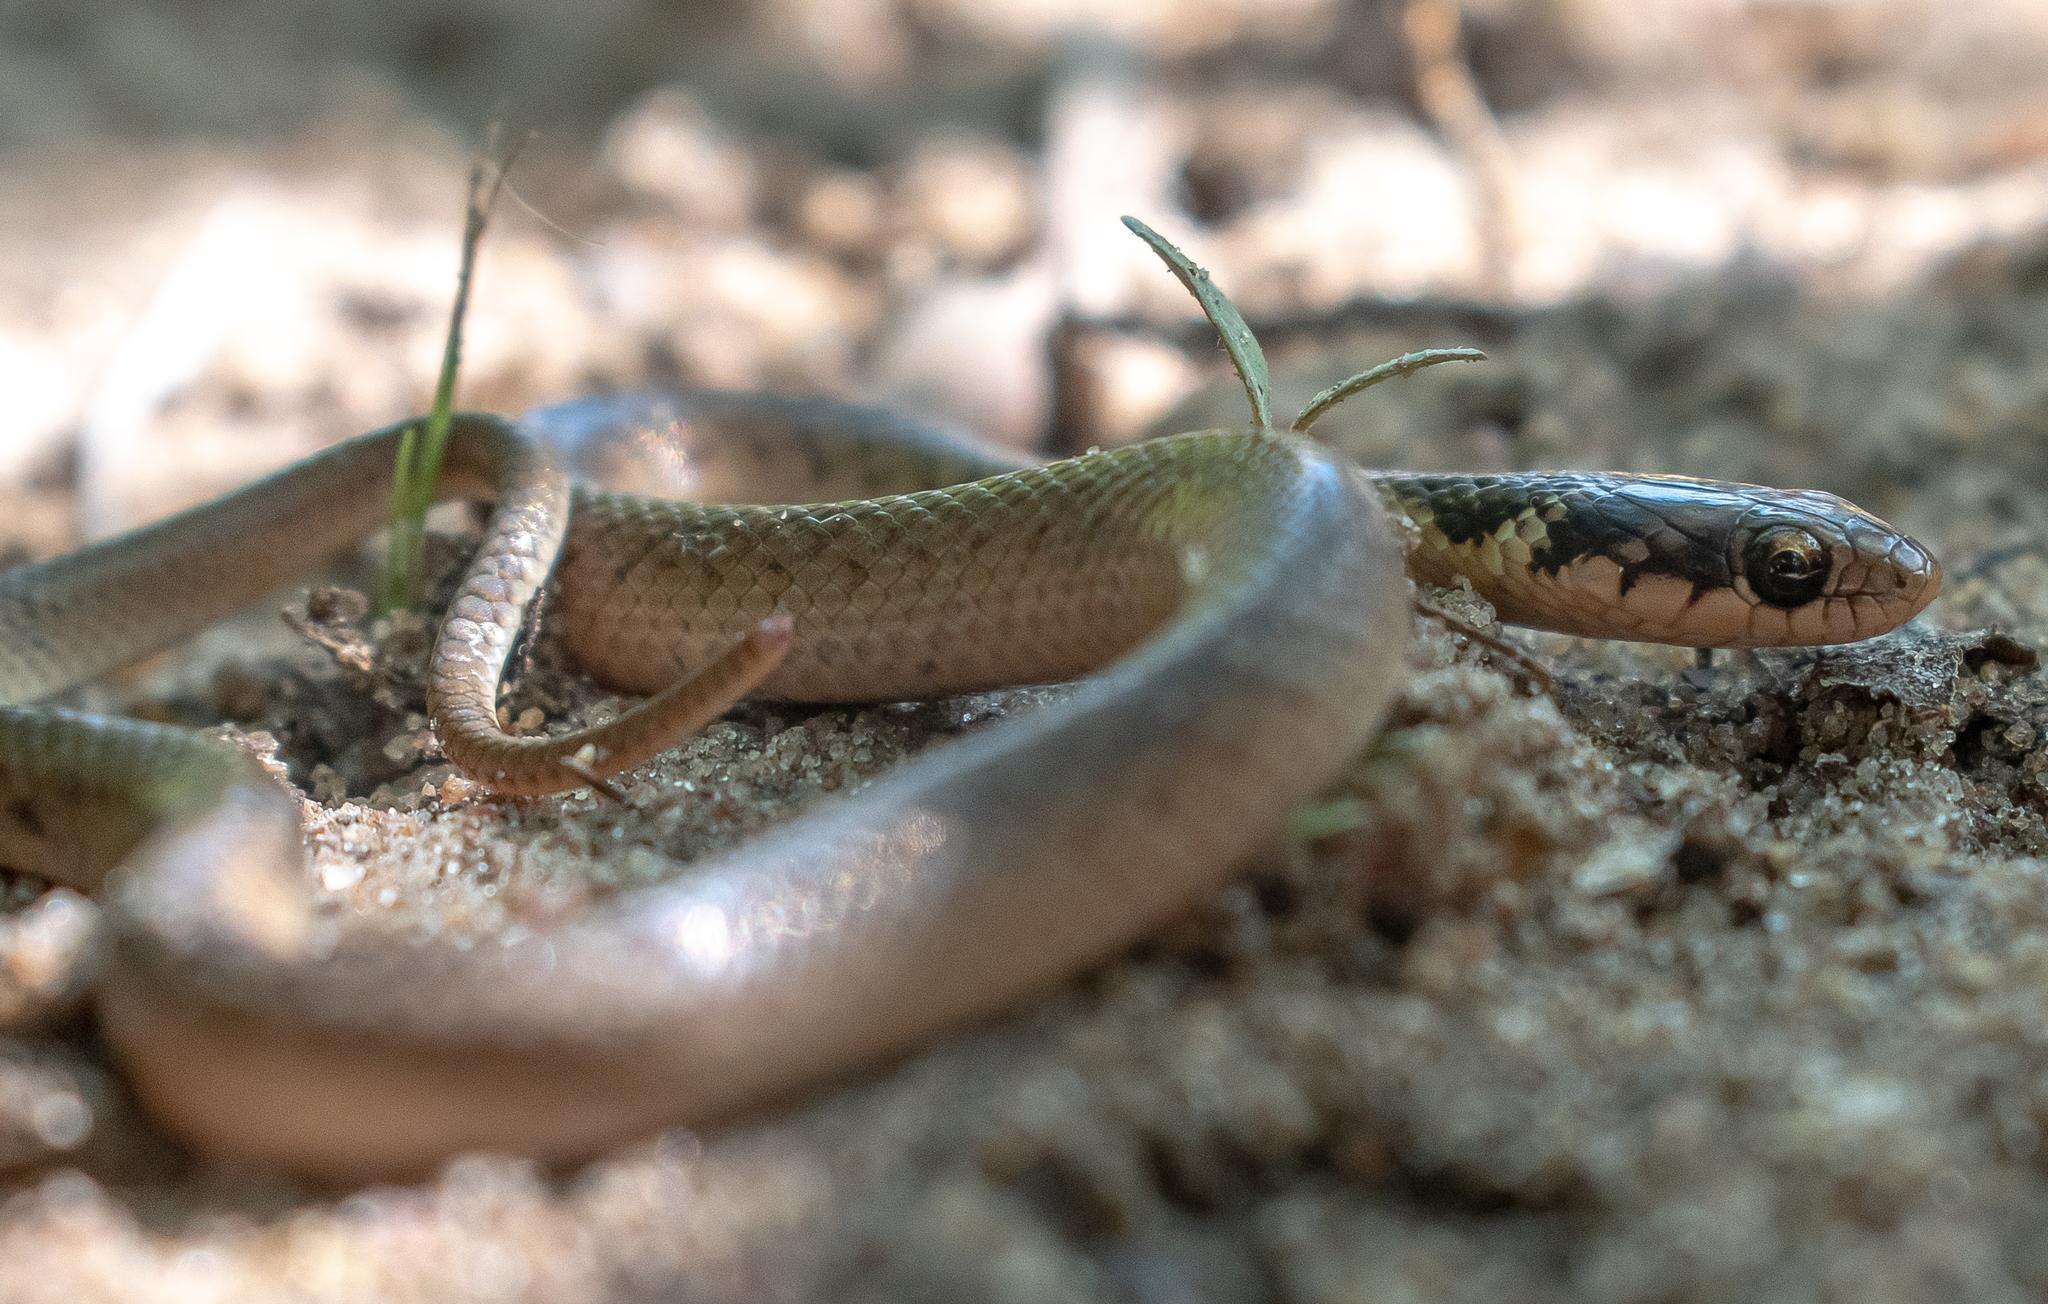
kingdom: Animalia
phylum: Chordata
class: Squamata
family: Colubridae
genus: Erythrolamprus
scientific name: Erythrolamprus aenigma
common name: Savannah racer snake
